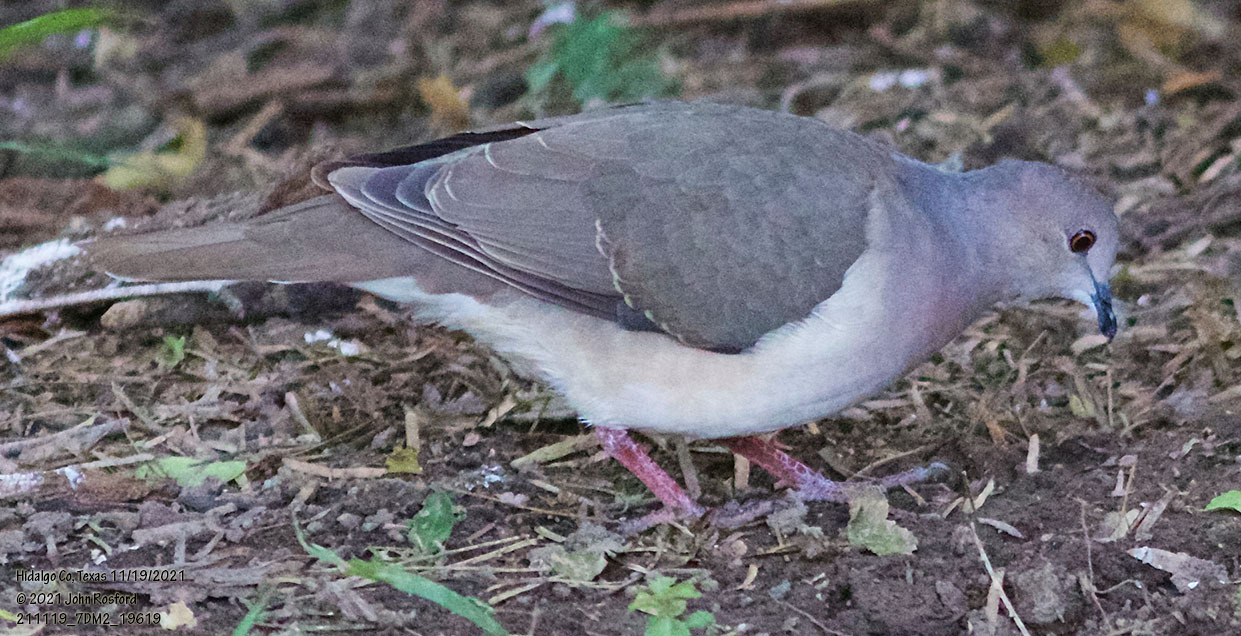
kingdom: Animalia
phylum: Chordata
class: Aves
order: Columbiformes
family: Columbidae
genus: Leptotila
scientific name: Leptotila verreauxi
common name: White-tipped dove
